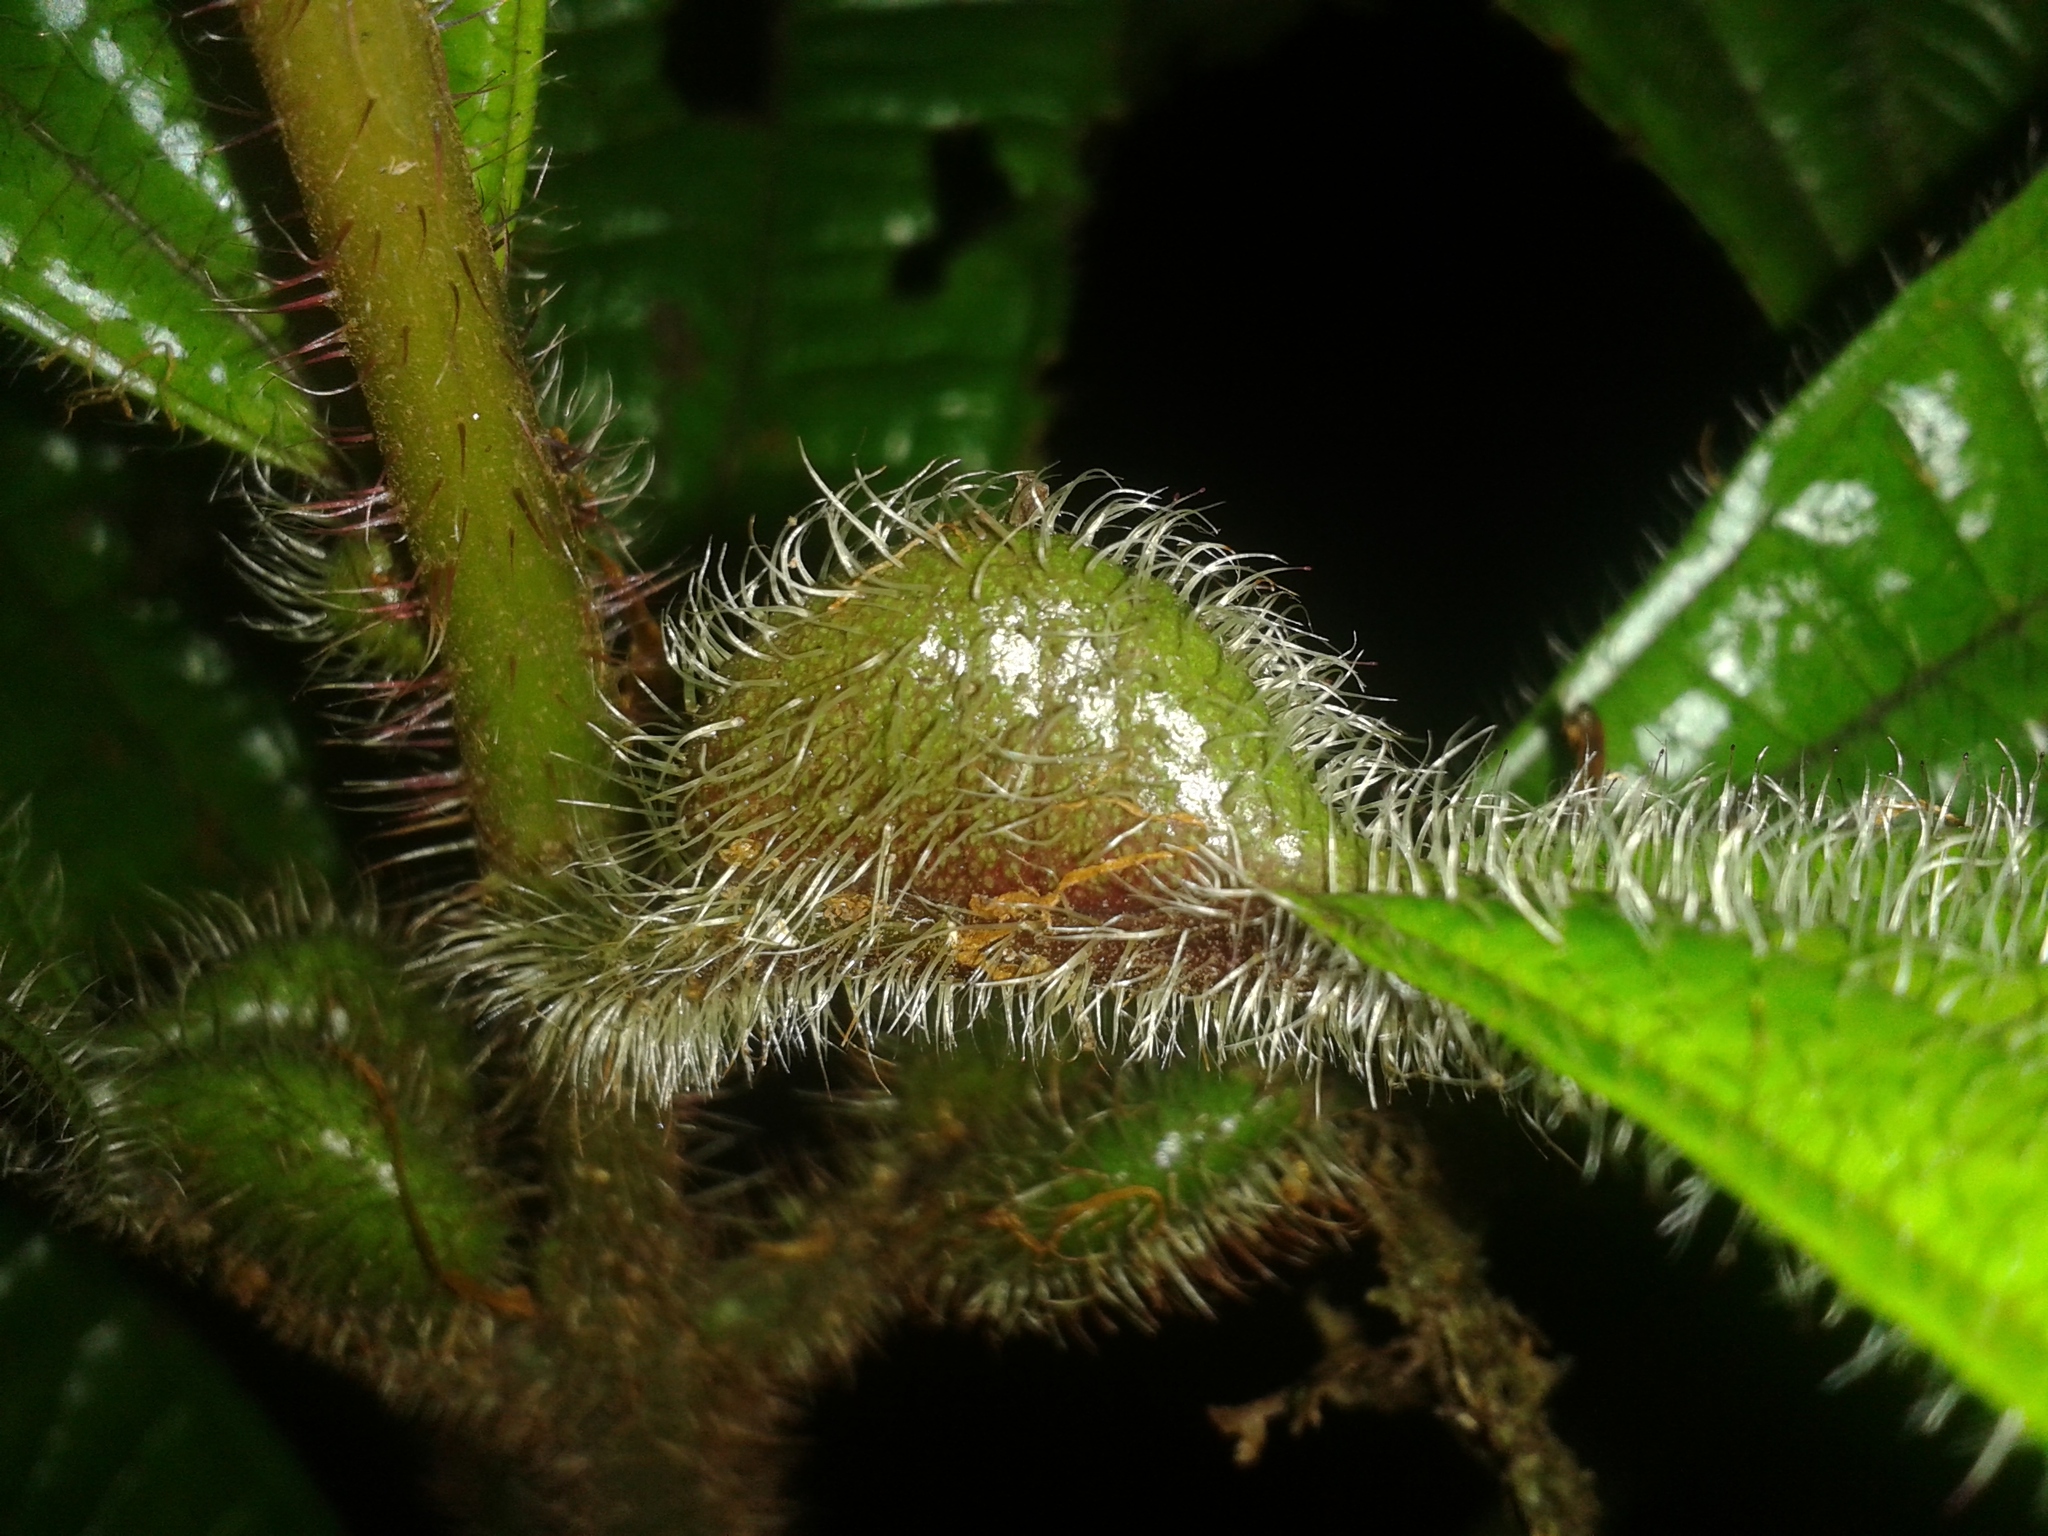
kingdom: Plantae
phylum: Tracheophyta
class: Magnoliopsida
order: Myrtales
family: Melastomataceae
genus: Miconia
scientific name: Miconia tococa
